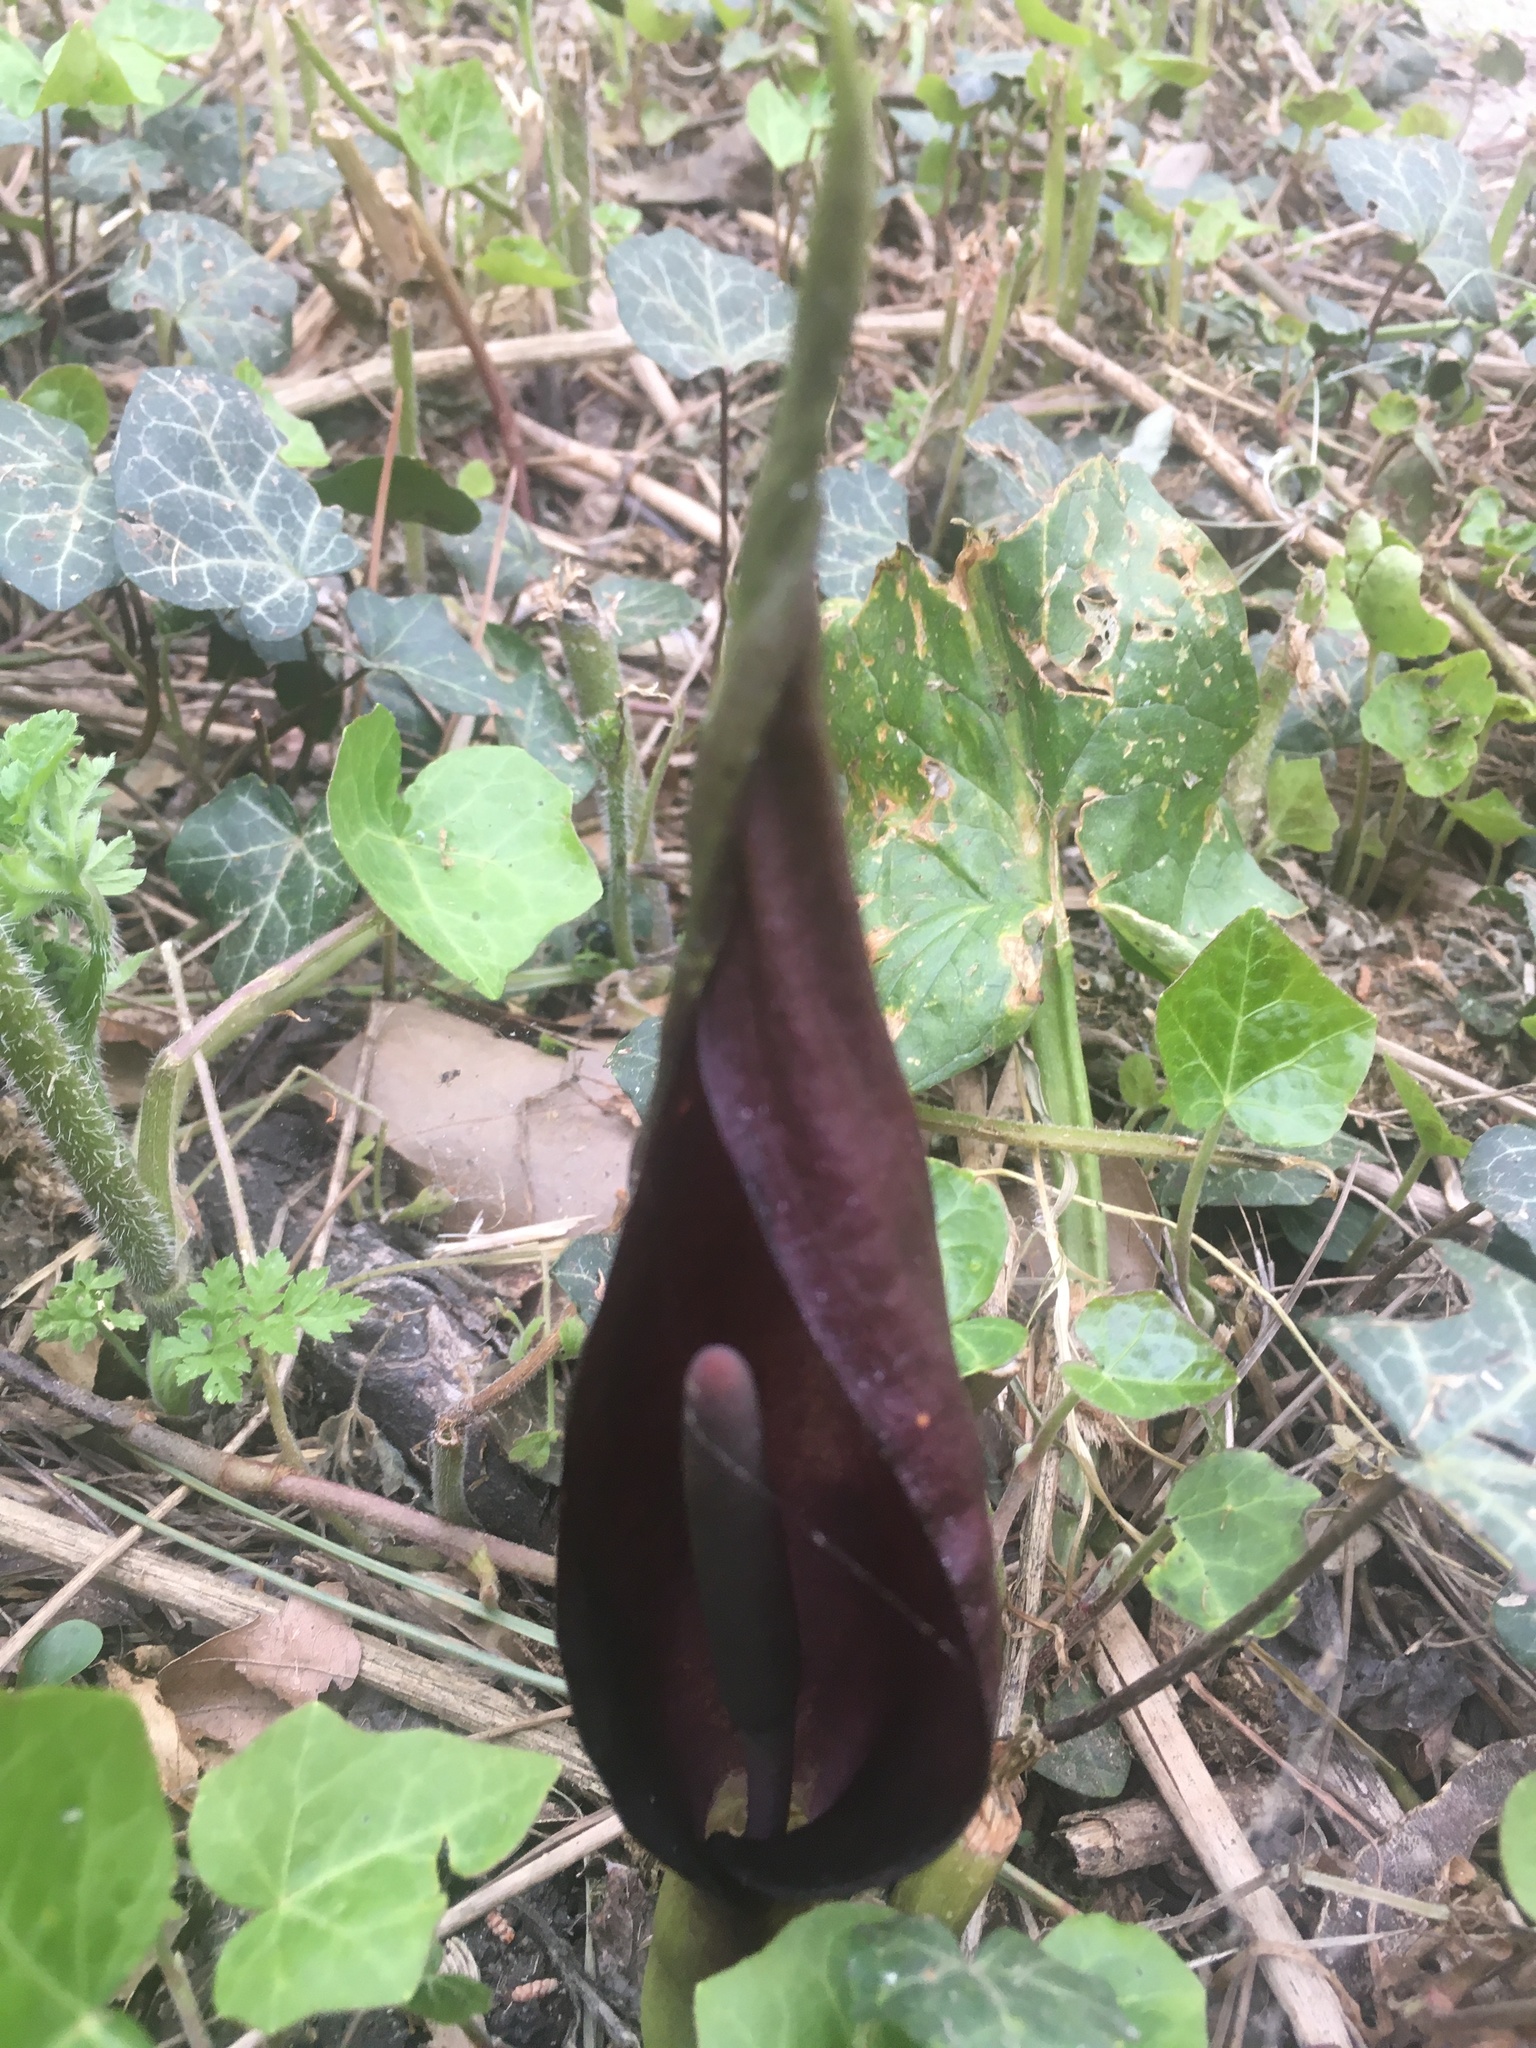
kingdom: Plantae
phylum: Tracheophyta
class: Liliopsida
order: Alismatales
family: Araceae
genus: Arum
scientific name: Arum orientale
